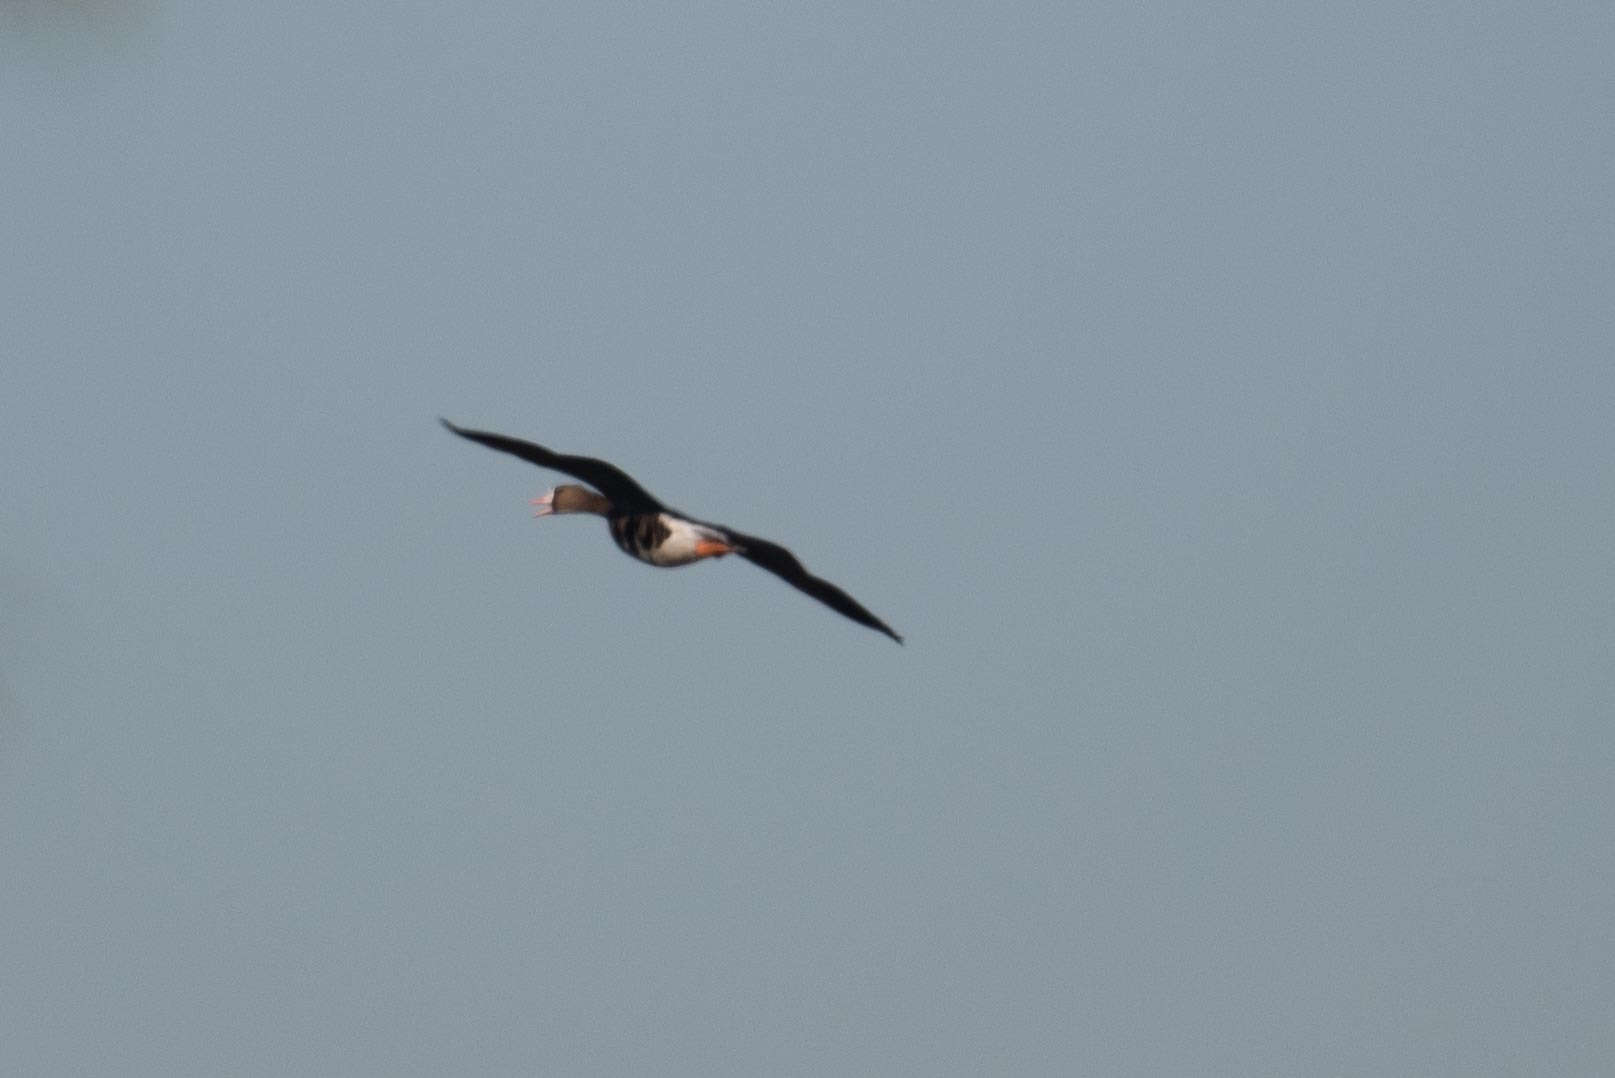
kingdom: Animalia
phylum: Chordata
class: Aves
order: Anseriformes
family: Anatidae
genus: Anser
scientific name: Anser albifrons
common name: Greater white-fronted goose
